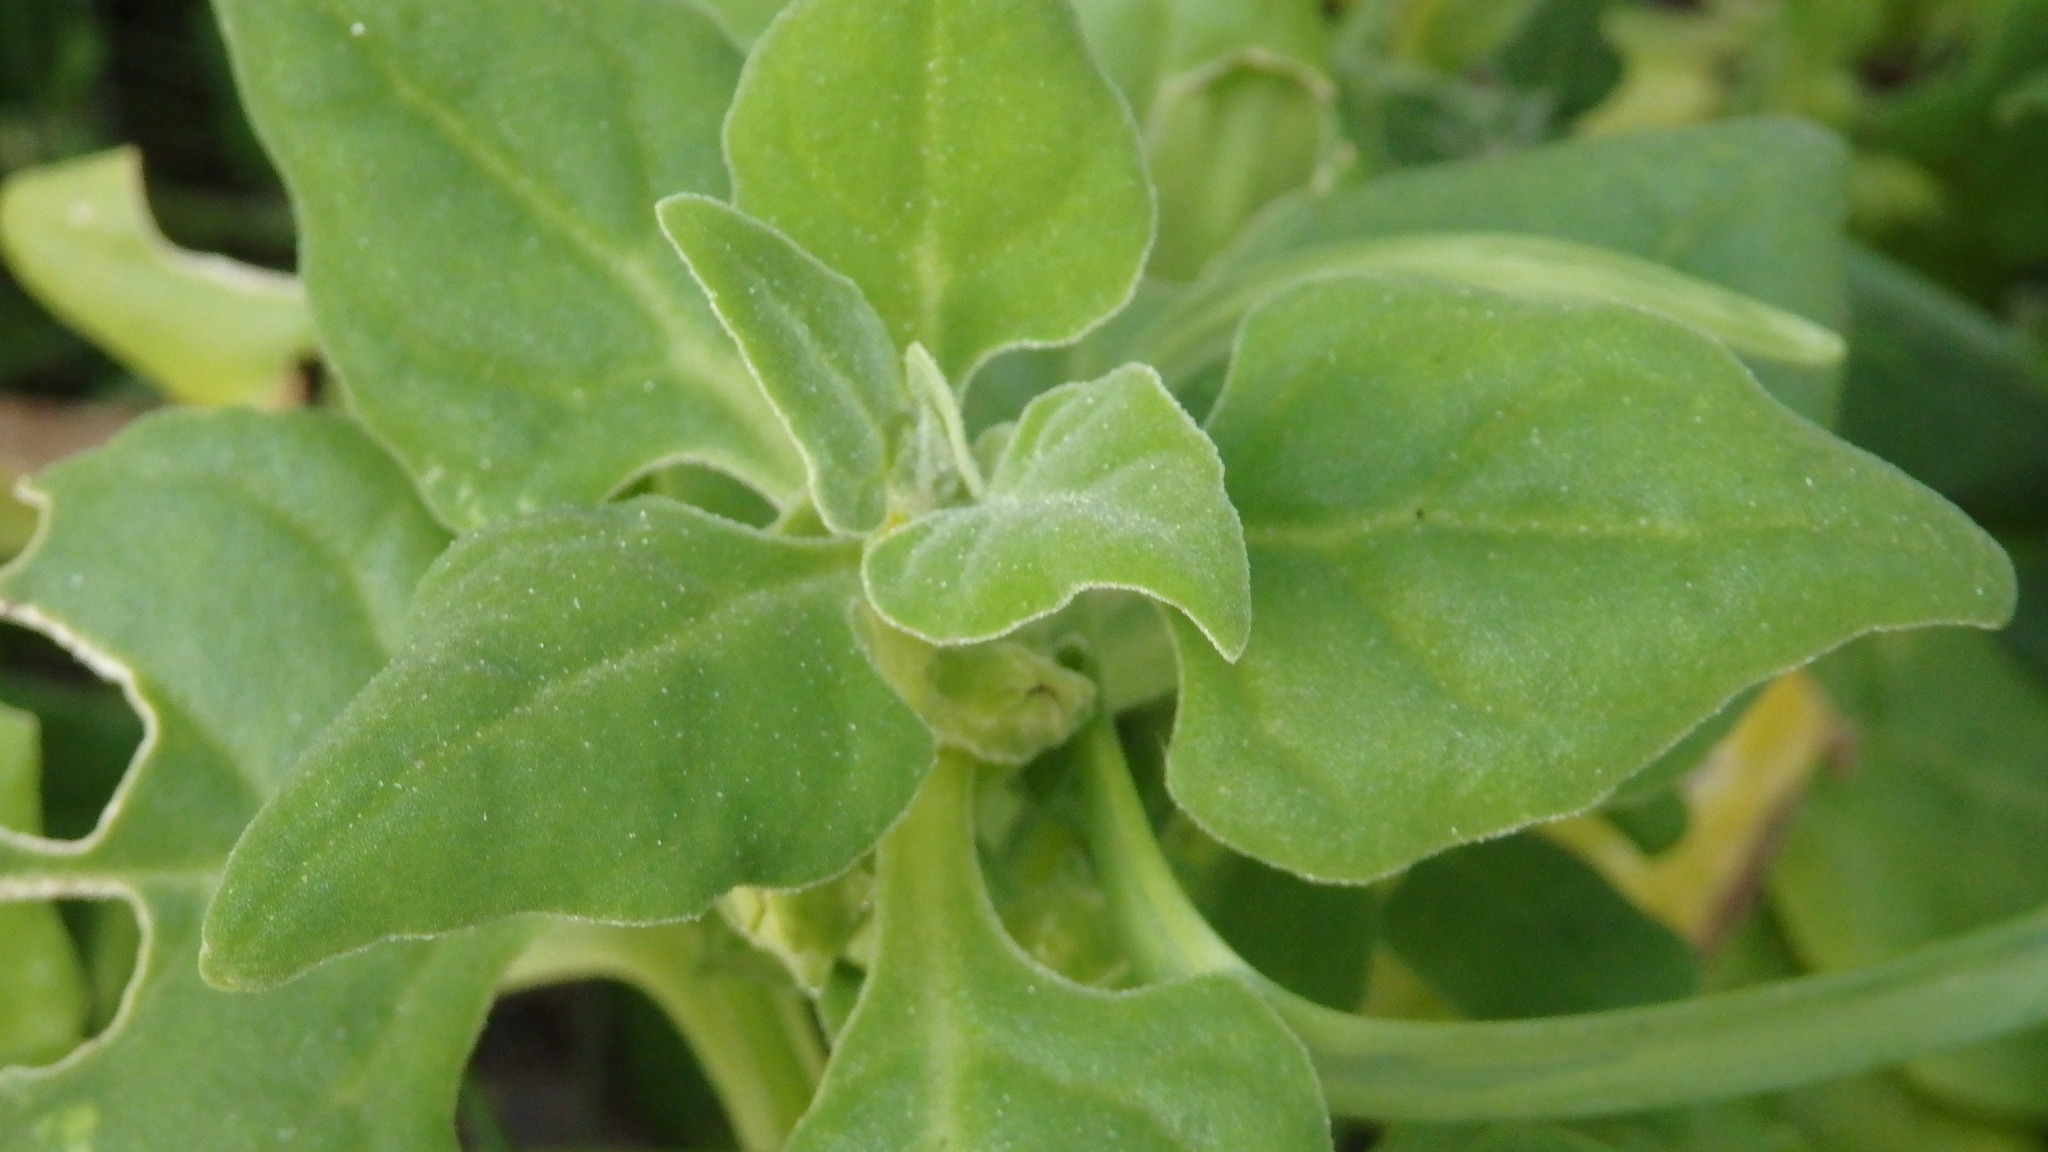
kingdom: Plantae
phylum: Tracheophyta
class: Magnoliopsida
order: Caryophyllales
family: Aizoaceae
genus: Tetragonia
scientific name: Tetragonia tetragonoides
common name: New zealand-spinach
